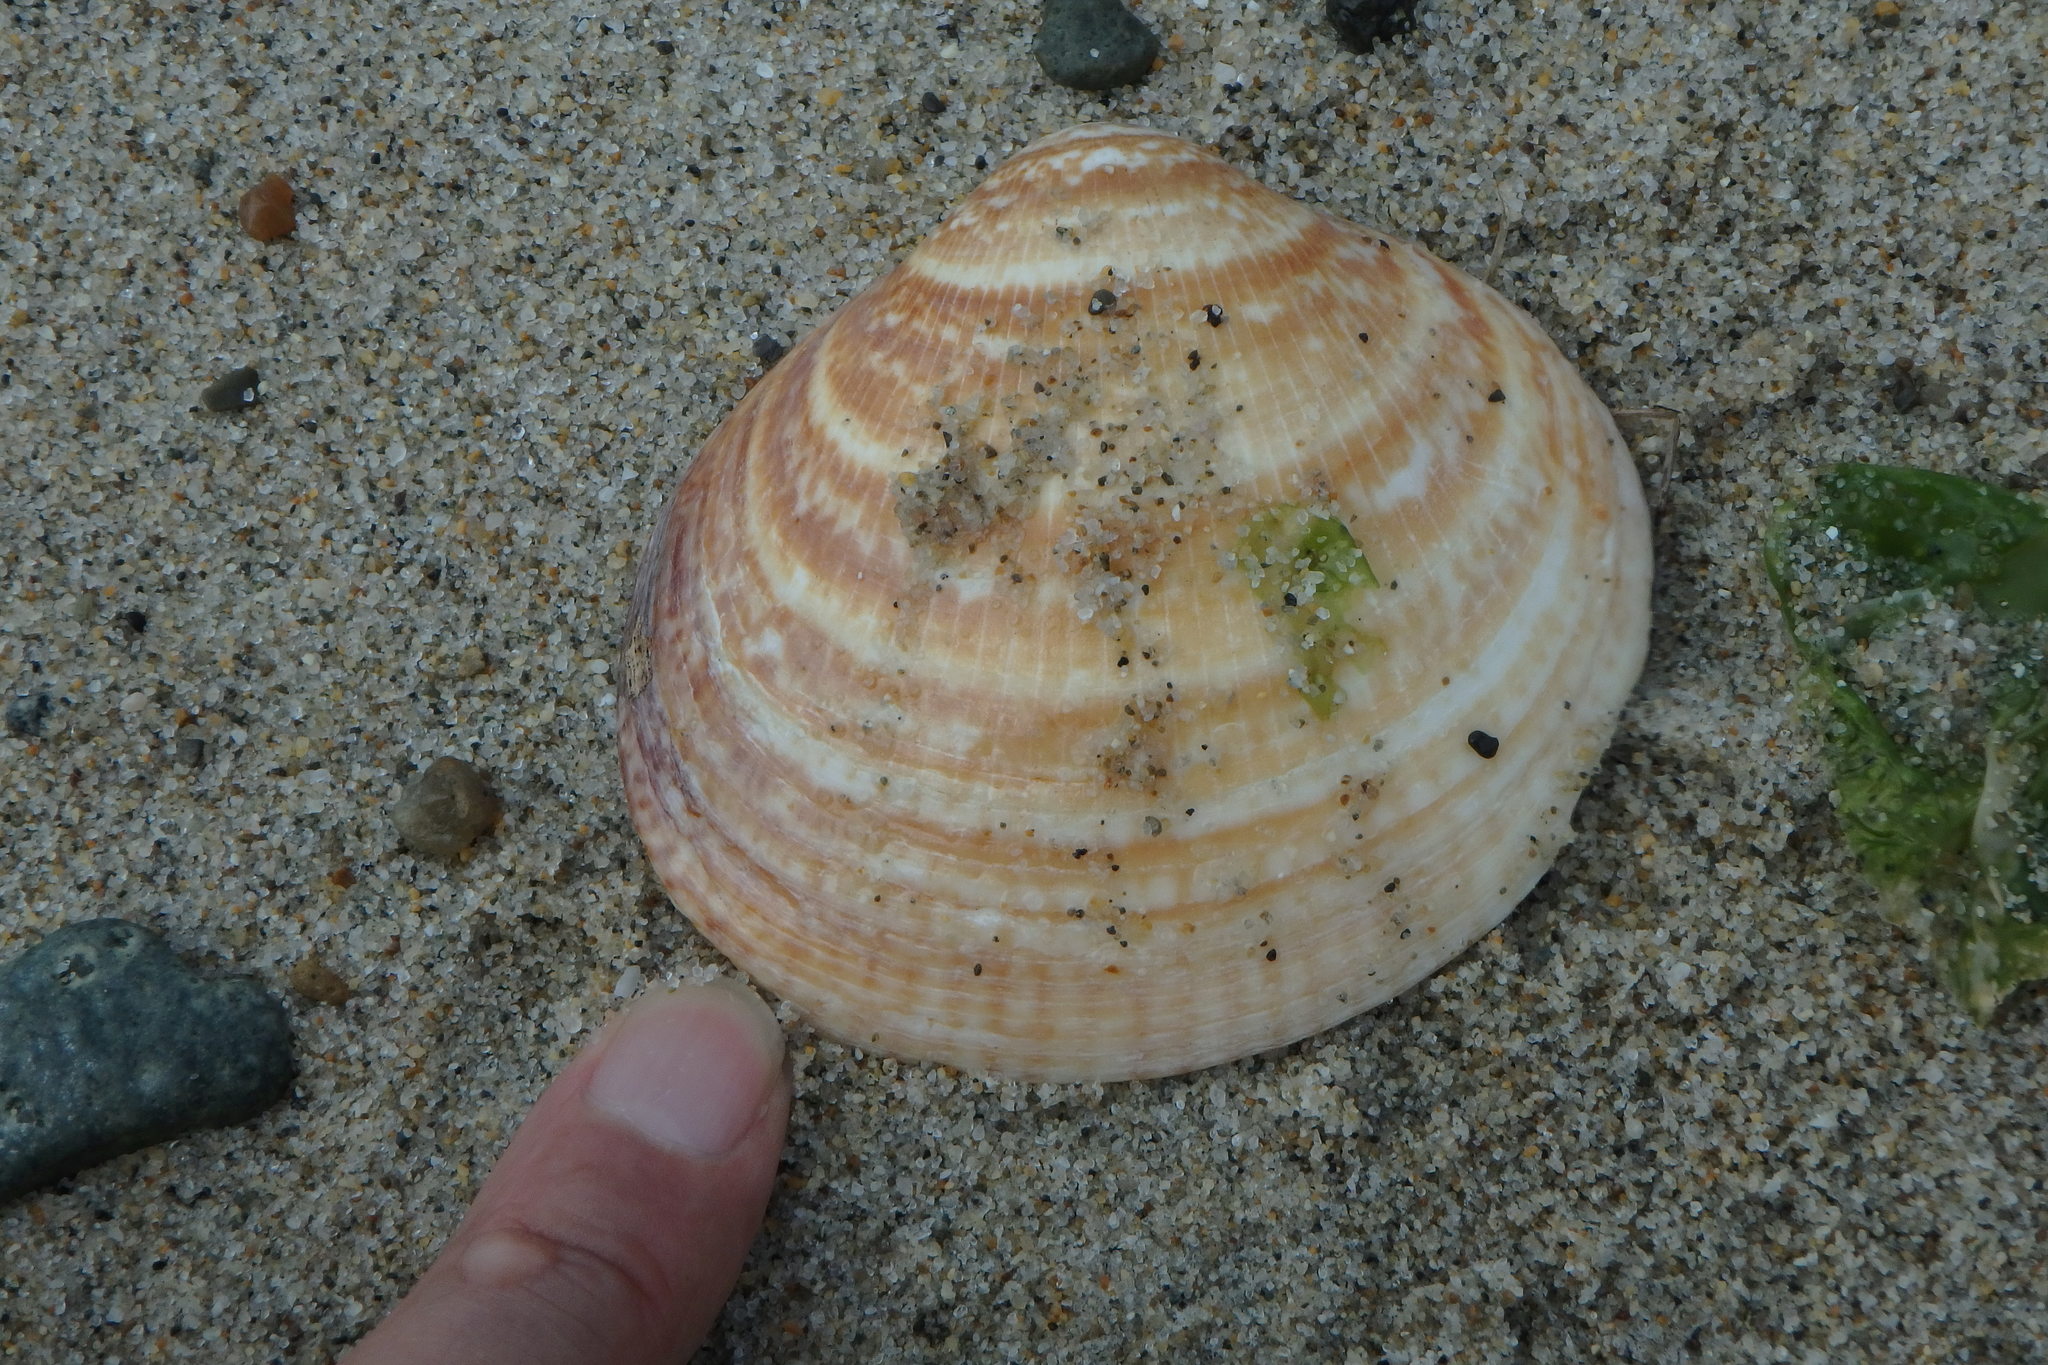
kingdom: Animalia
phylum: Mollusca
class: Bivalvia
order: Arcida
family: Glycymerididae
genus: Glycymeris
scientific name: Glycymeris albolineata
